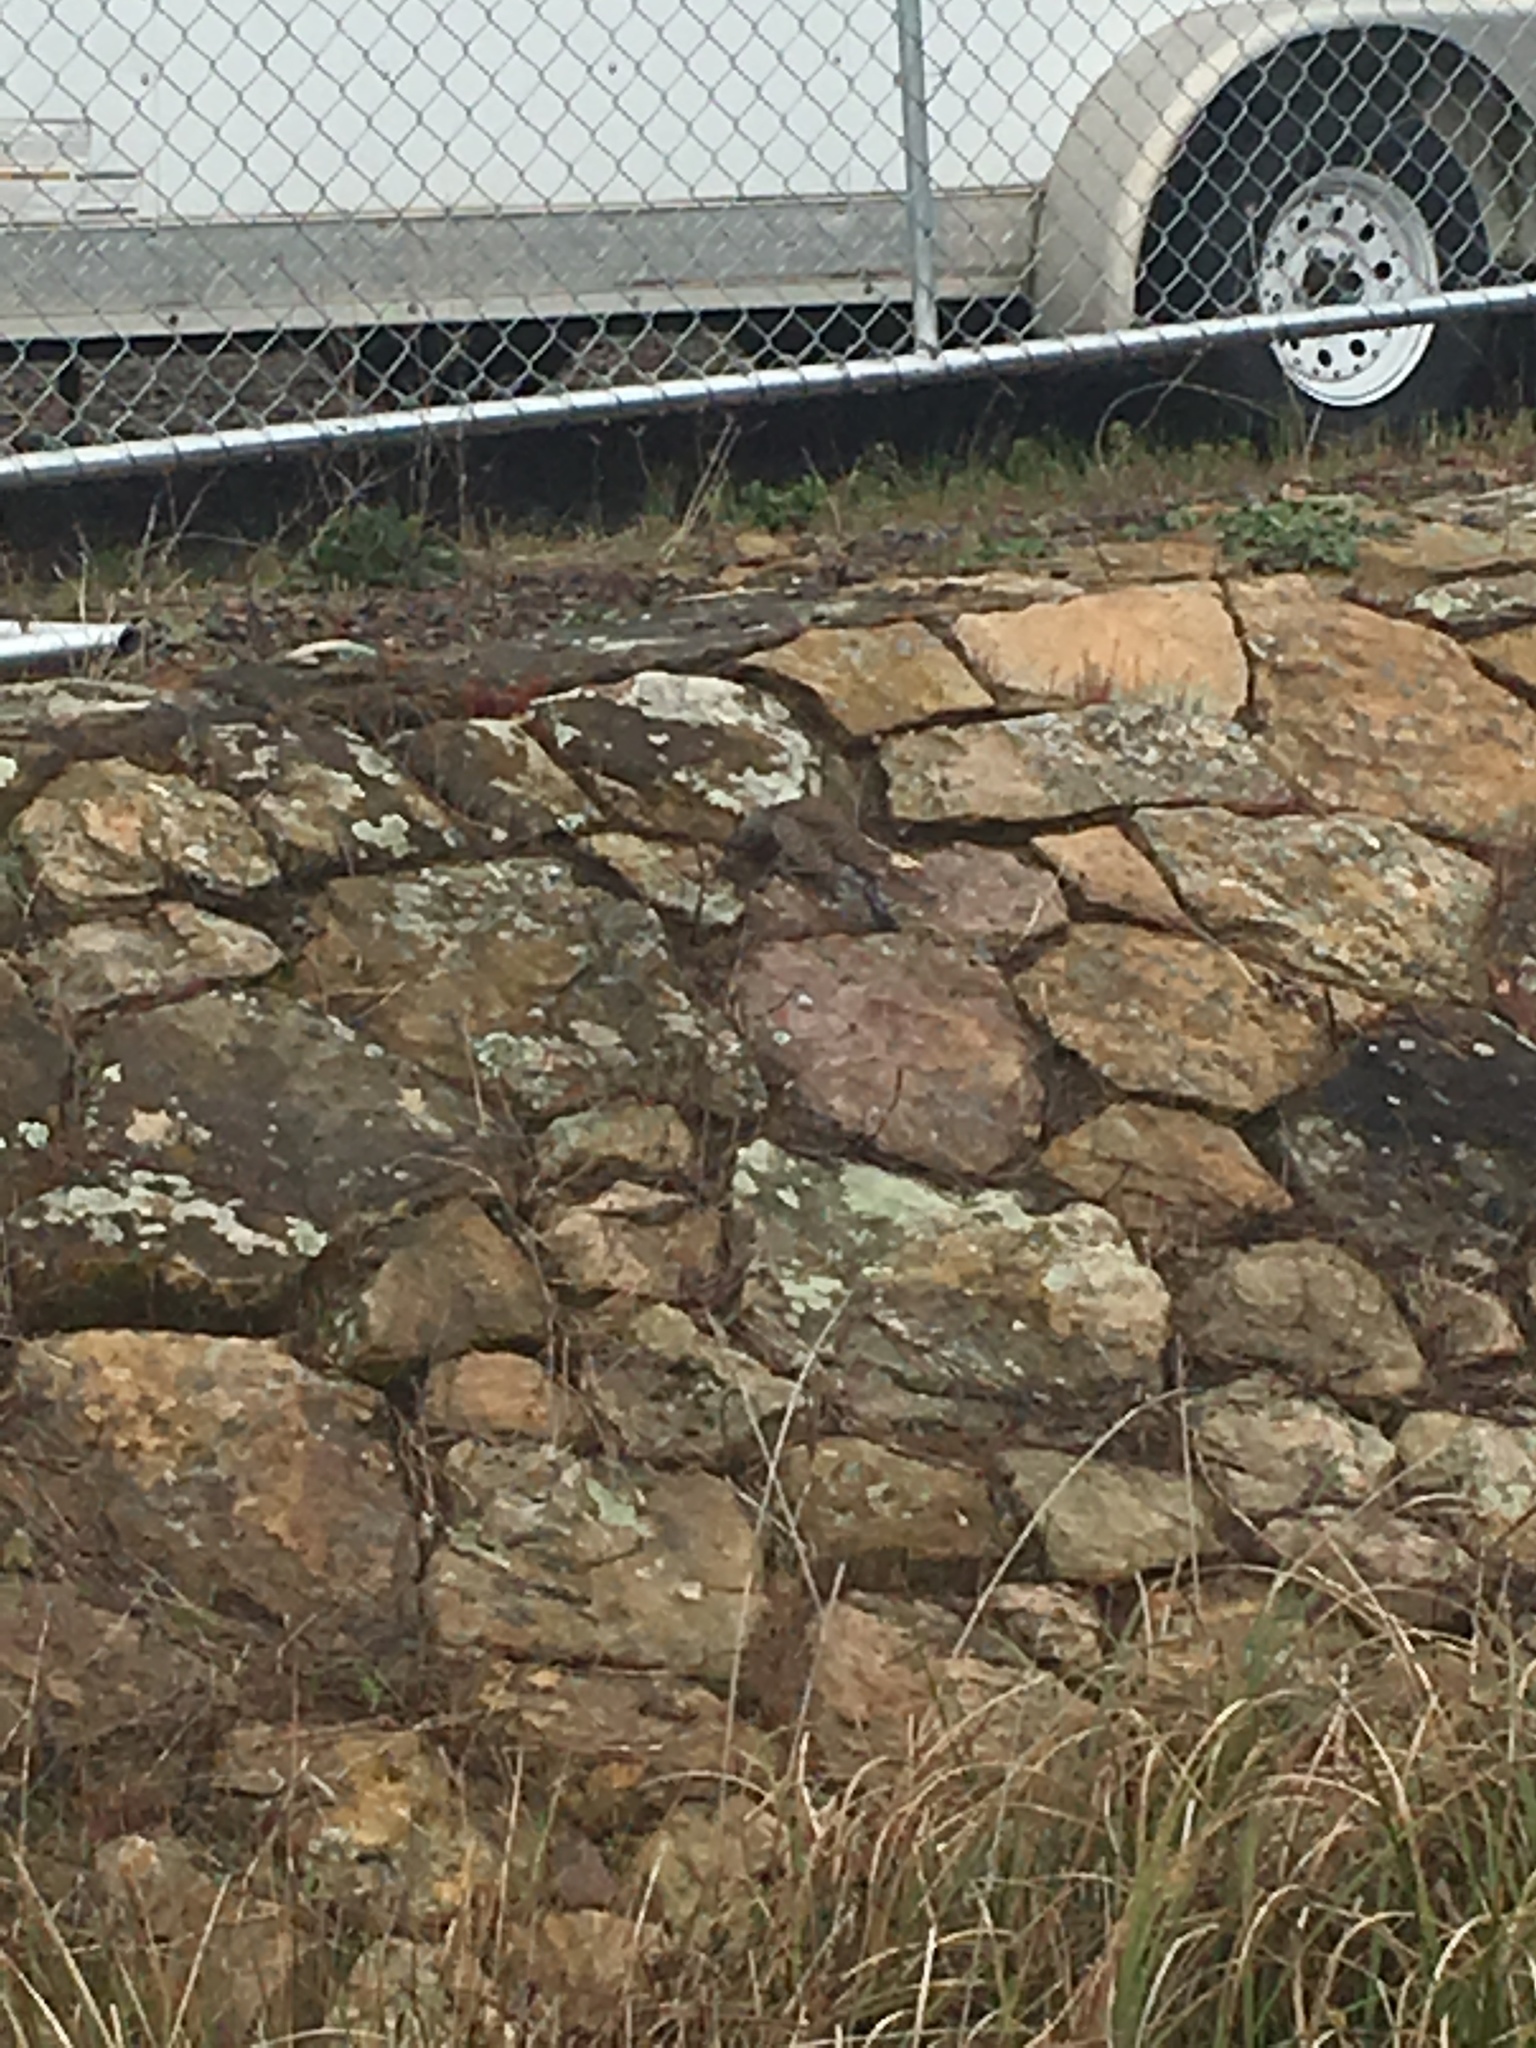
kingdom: Animalia
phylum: Chordata
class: Aves
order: Piciformes
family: Picidae
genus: Colaptes
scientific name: Colaptes auratus
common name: Northern flicker
